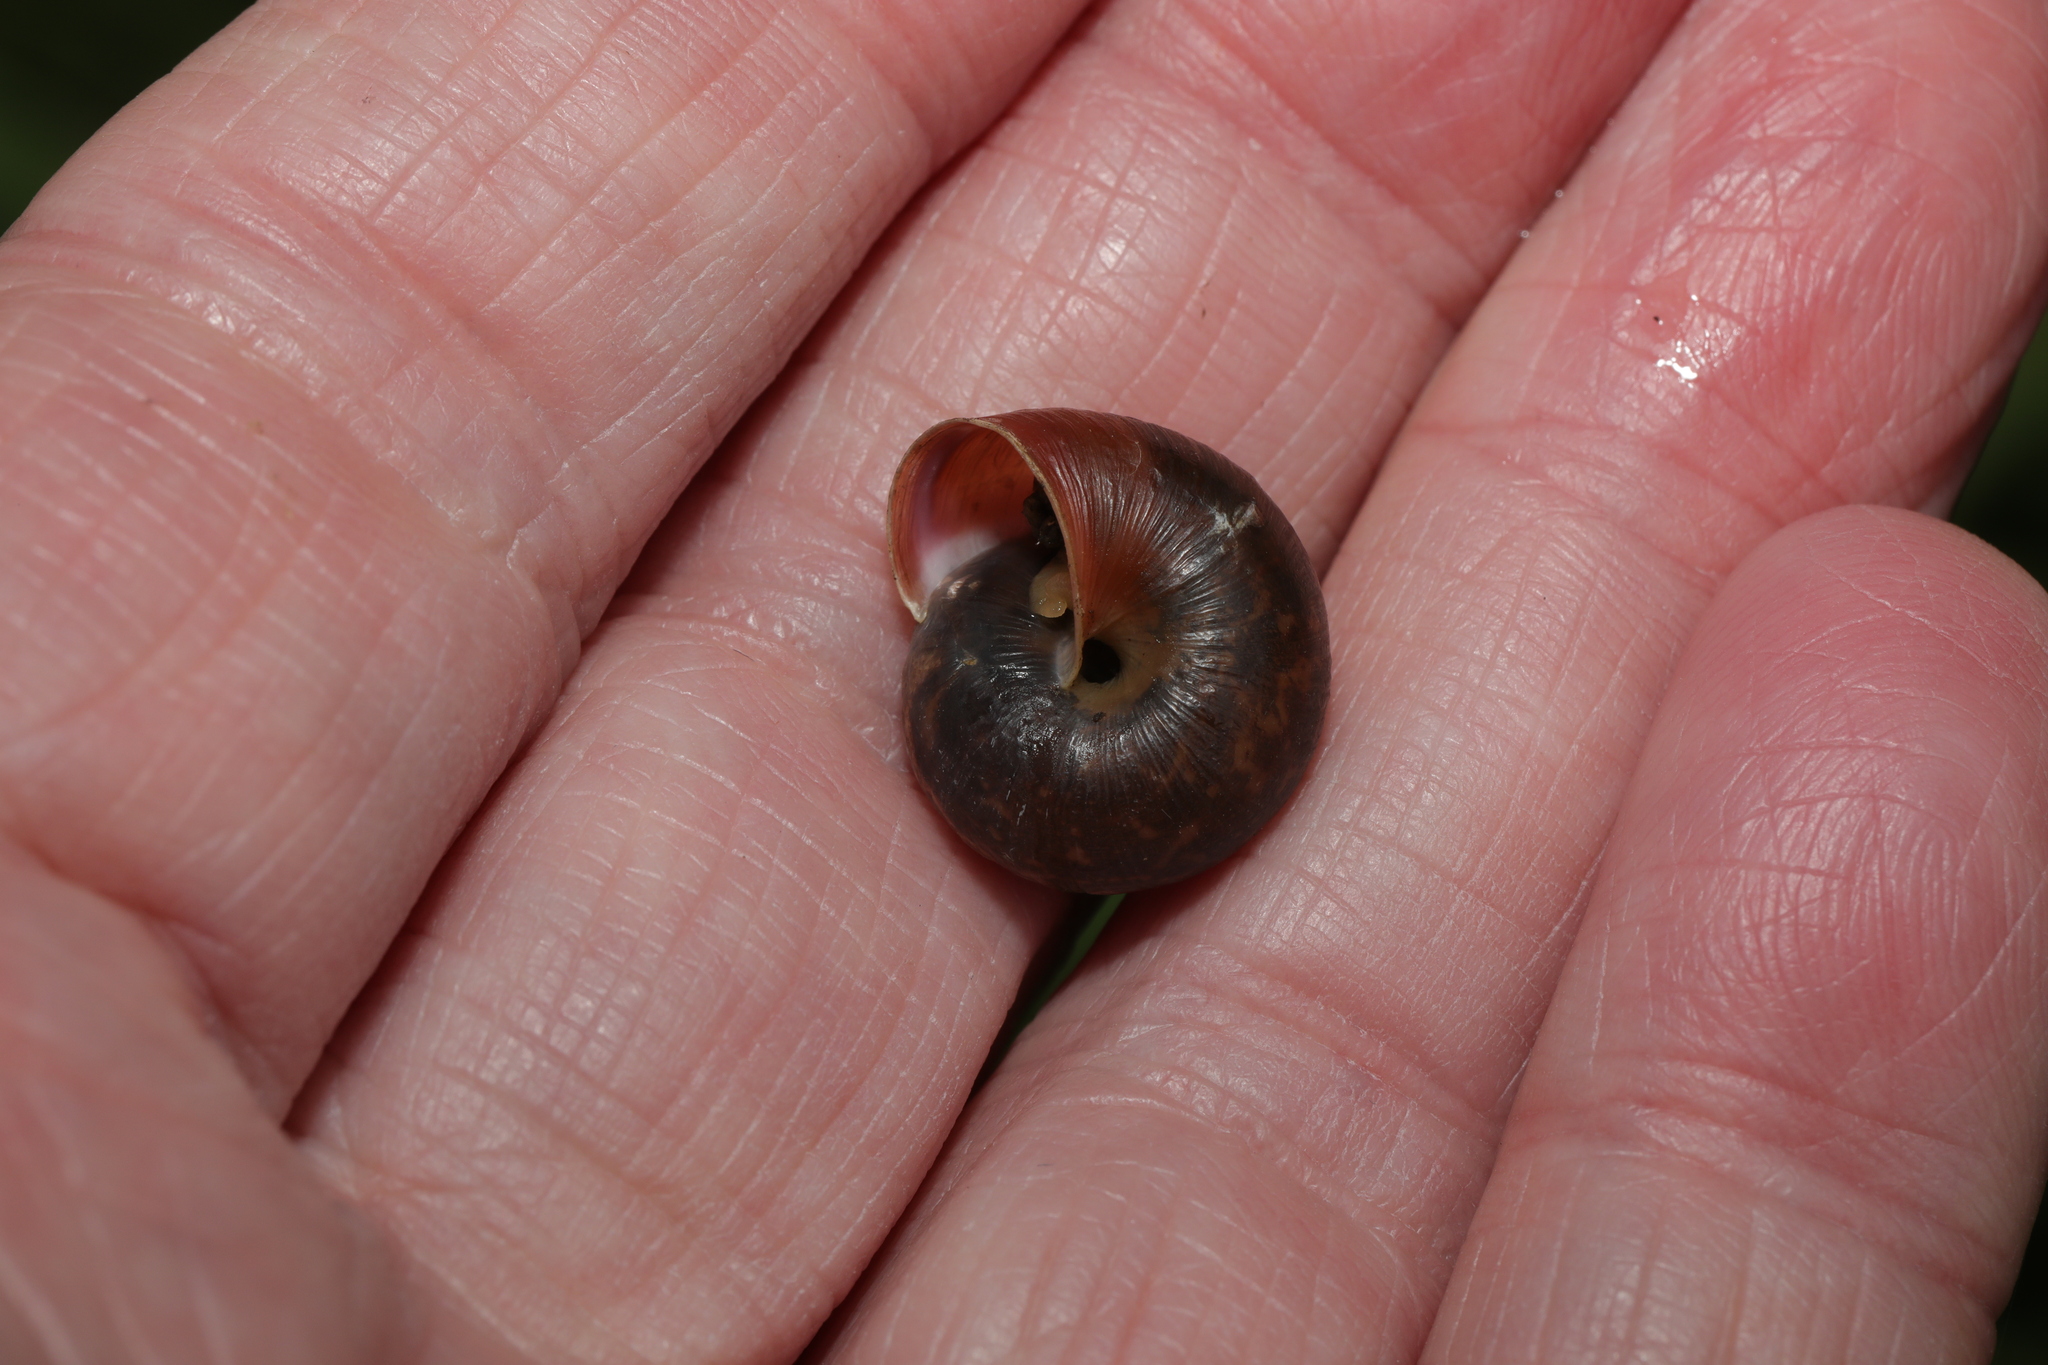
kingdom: Animalia
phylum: Mollusca
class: Gastropoda
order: Stylommatophora
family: Hygromiidae
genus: Trochulus
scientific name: Trochulus striolatus
